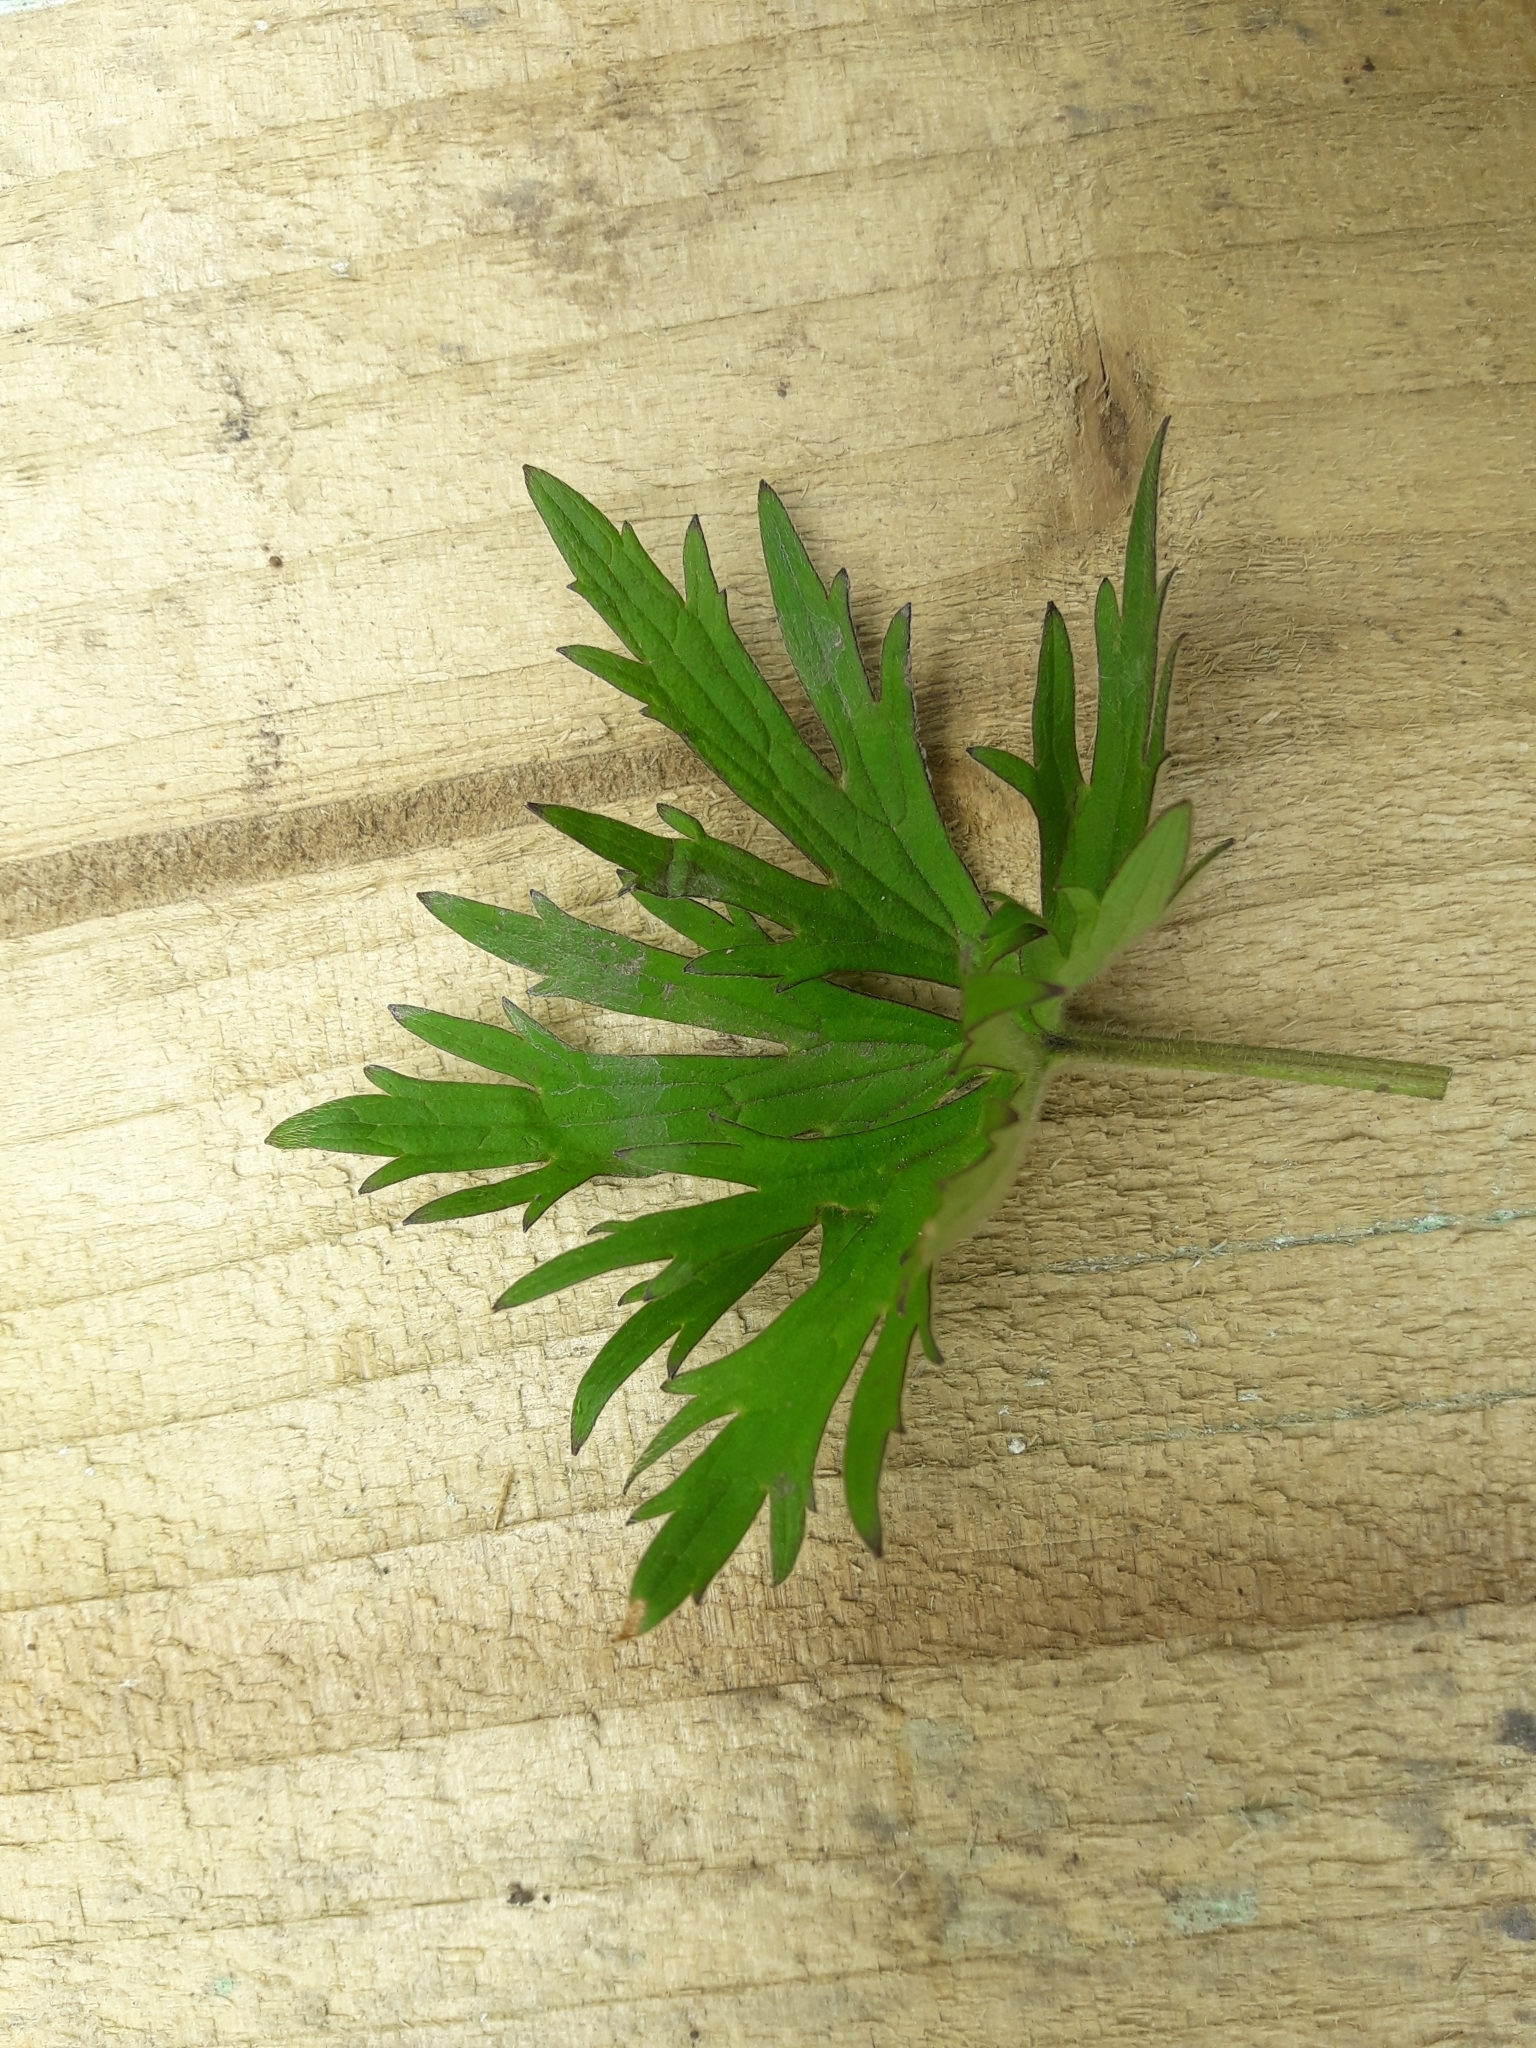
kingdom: Plantae
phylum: Tracheophyta
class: Magnoliopsida
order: Ranunculales
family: Ranunculaceae
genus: Ranunculus
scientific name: Ranunculus acris
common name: Meadow buttercup
